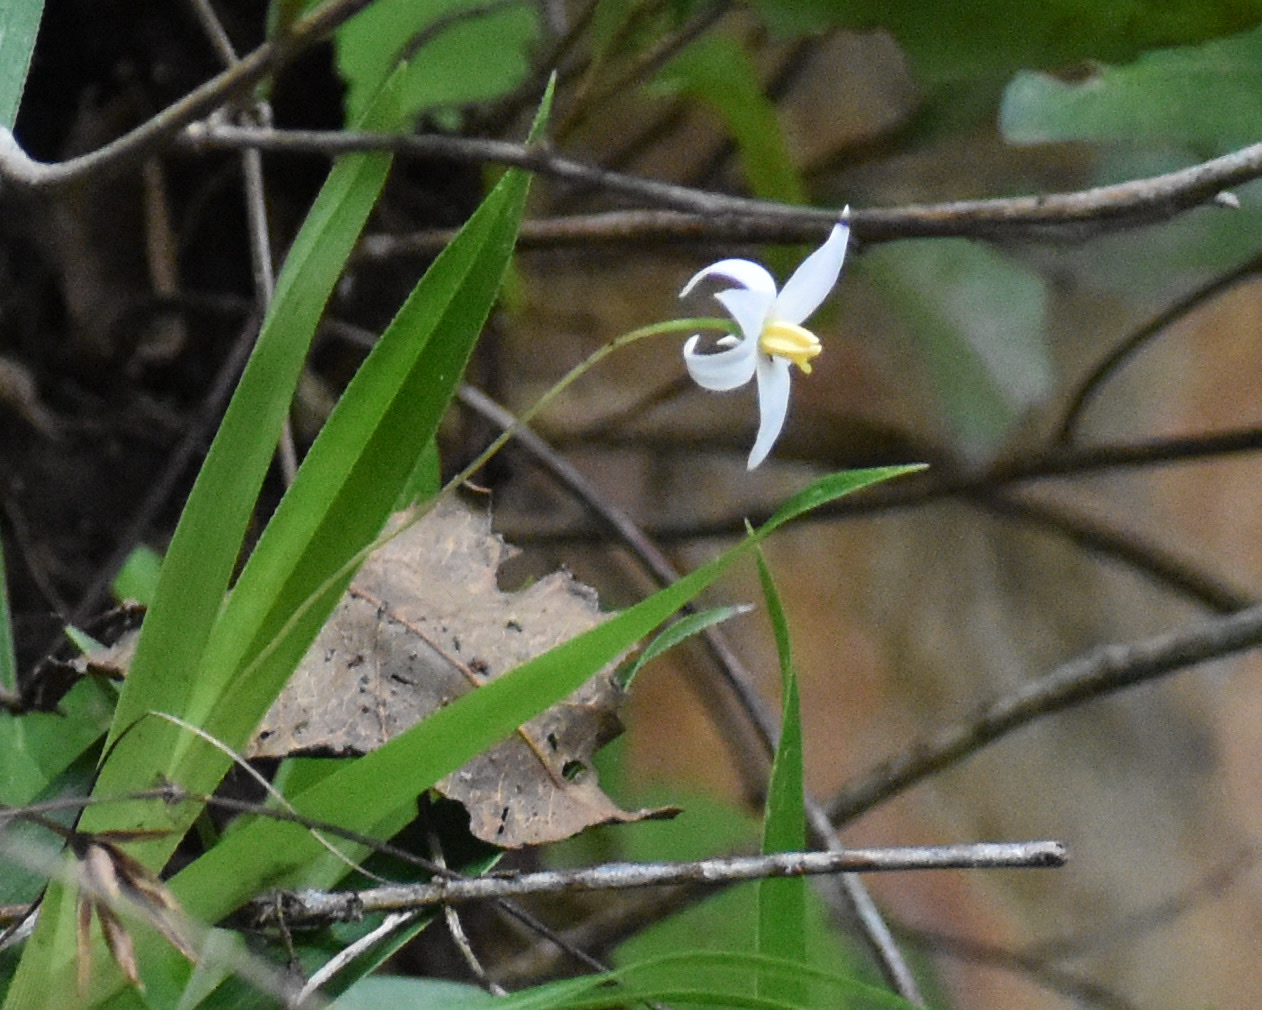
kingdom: Plantae
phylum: Tracheophyta
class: Liliopsida
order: Pandanales
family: Velloziaceae
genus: Xerophyta
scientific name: Xerophyta elegans
